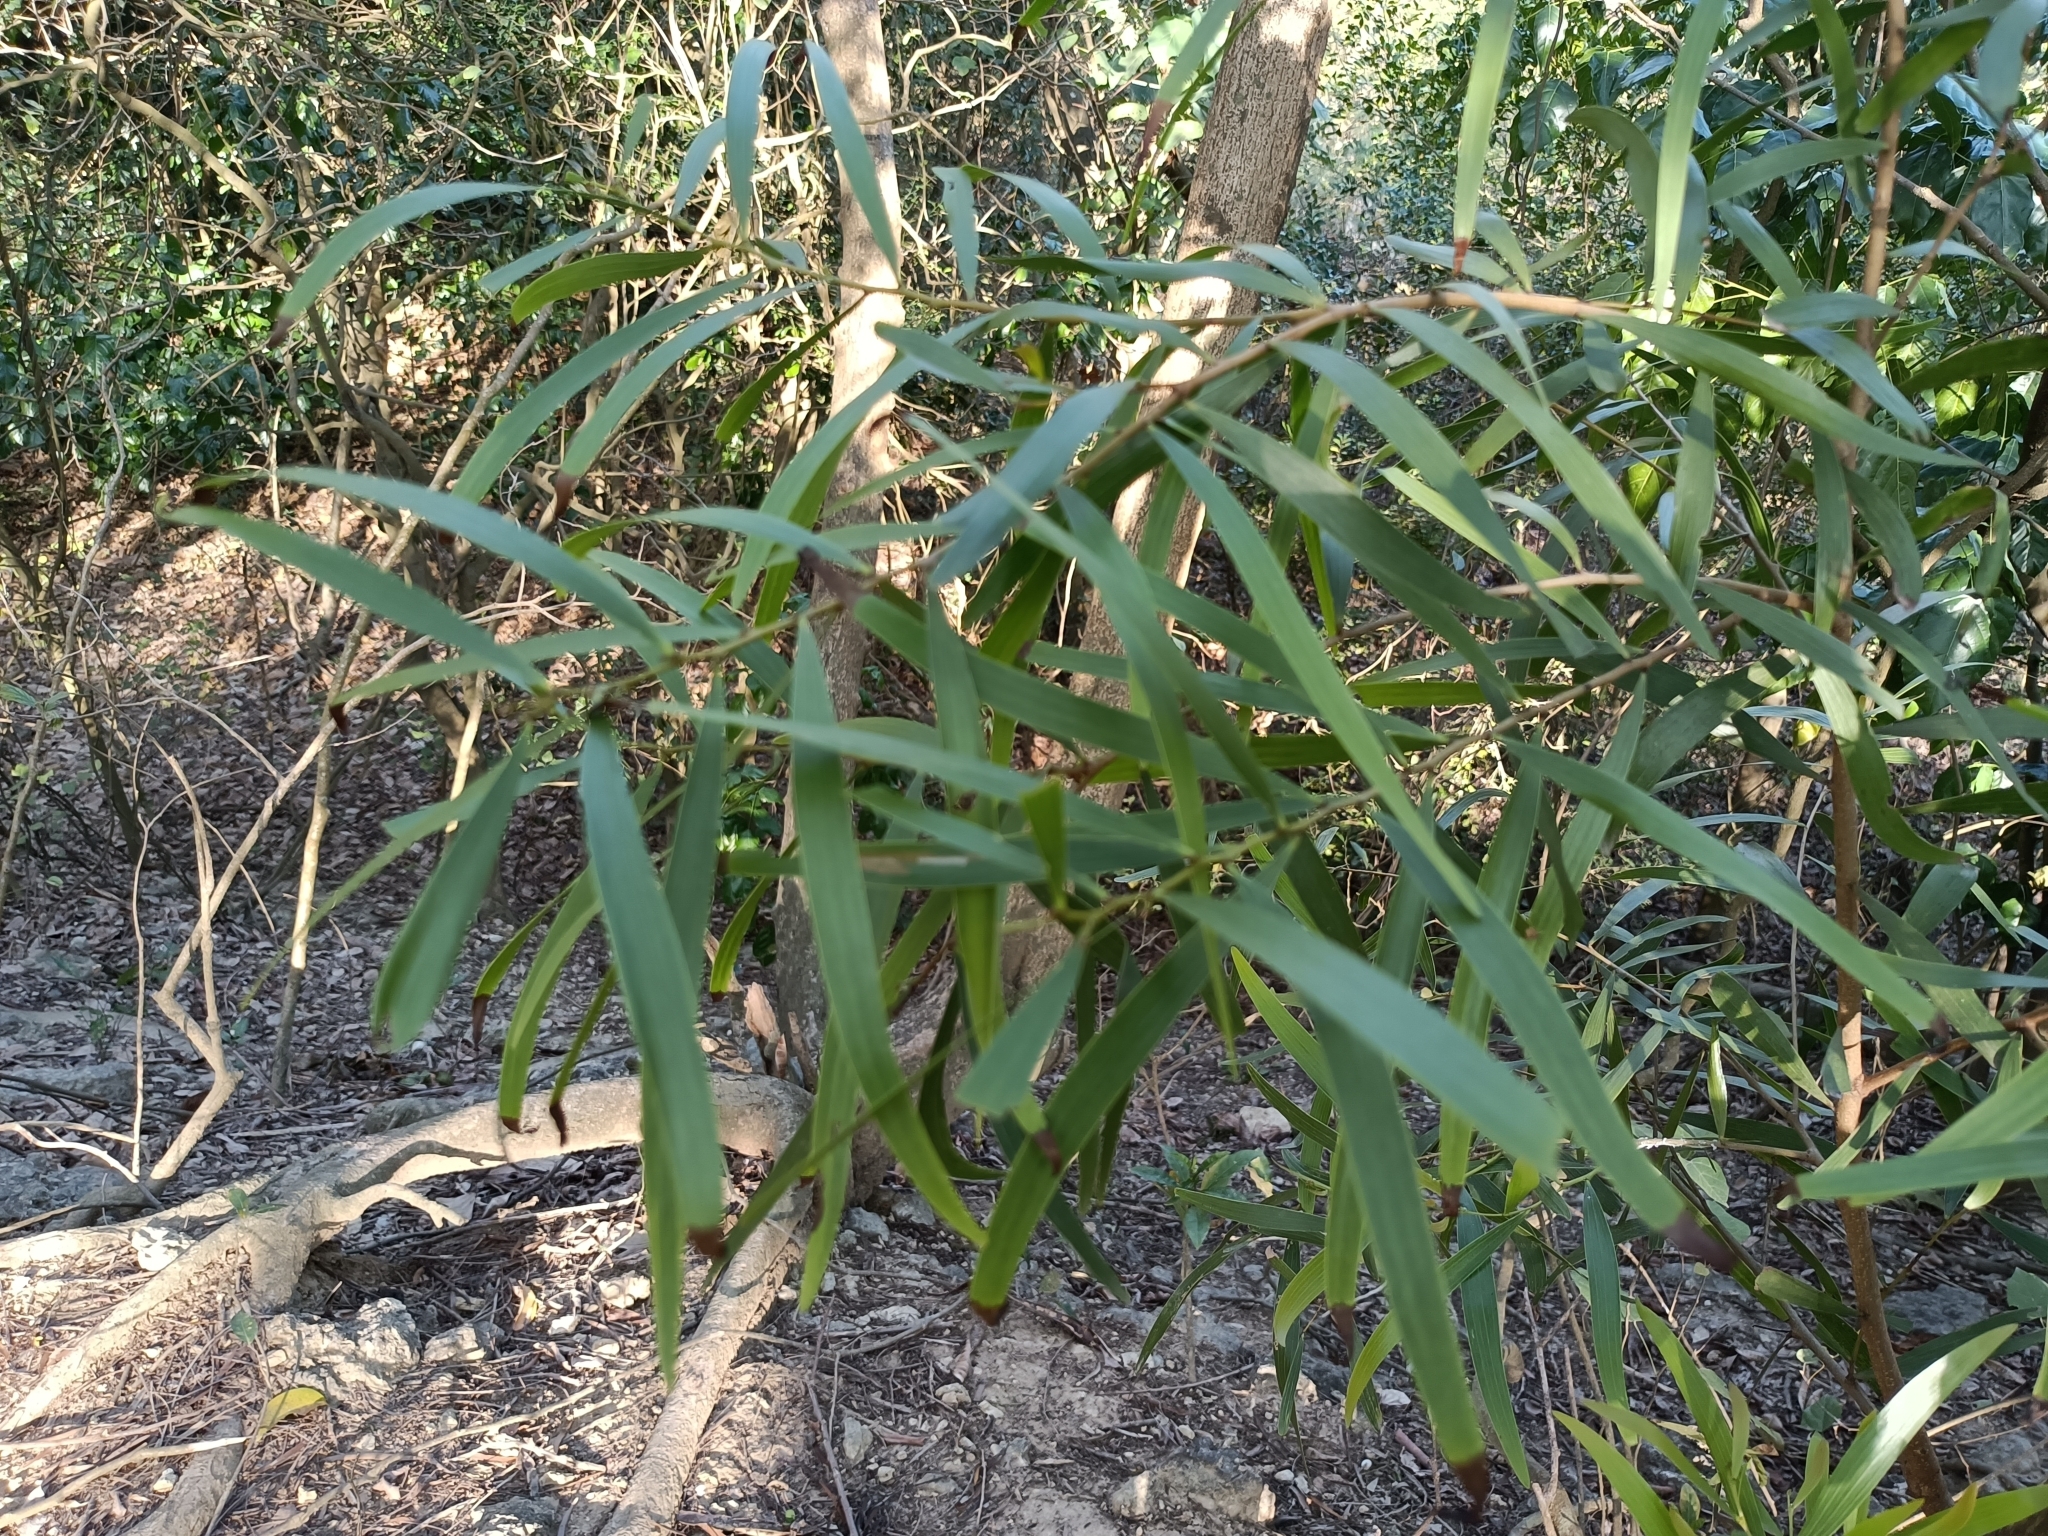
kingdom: Plantae
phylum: Tracheophyta
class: Magnoliopsida
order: Fabales
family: Fabaceae
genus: Acacia
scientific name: Acacia confusa
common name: Formosan koa
